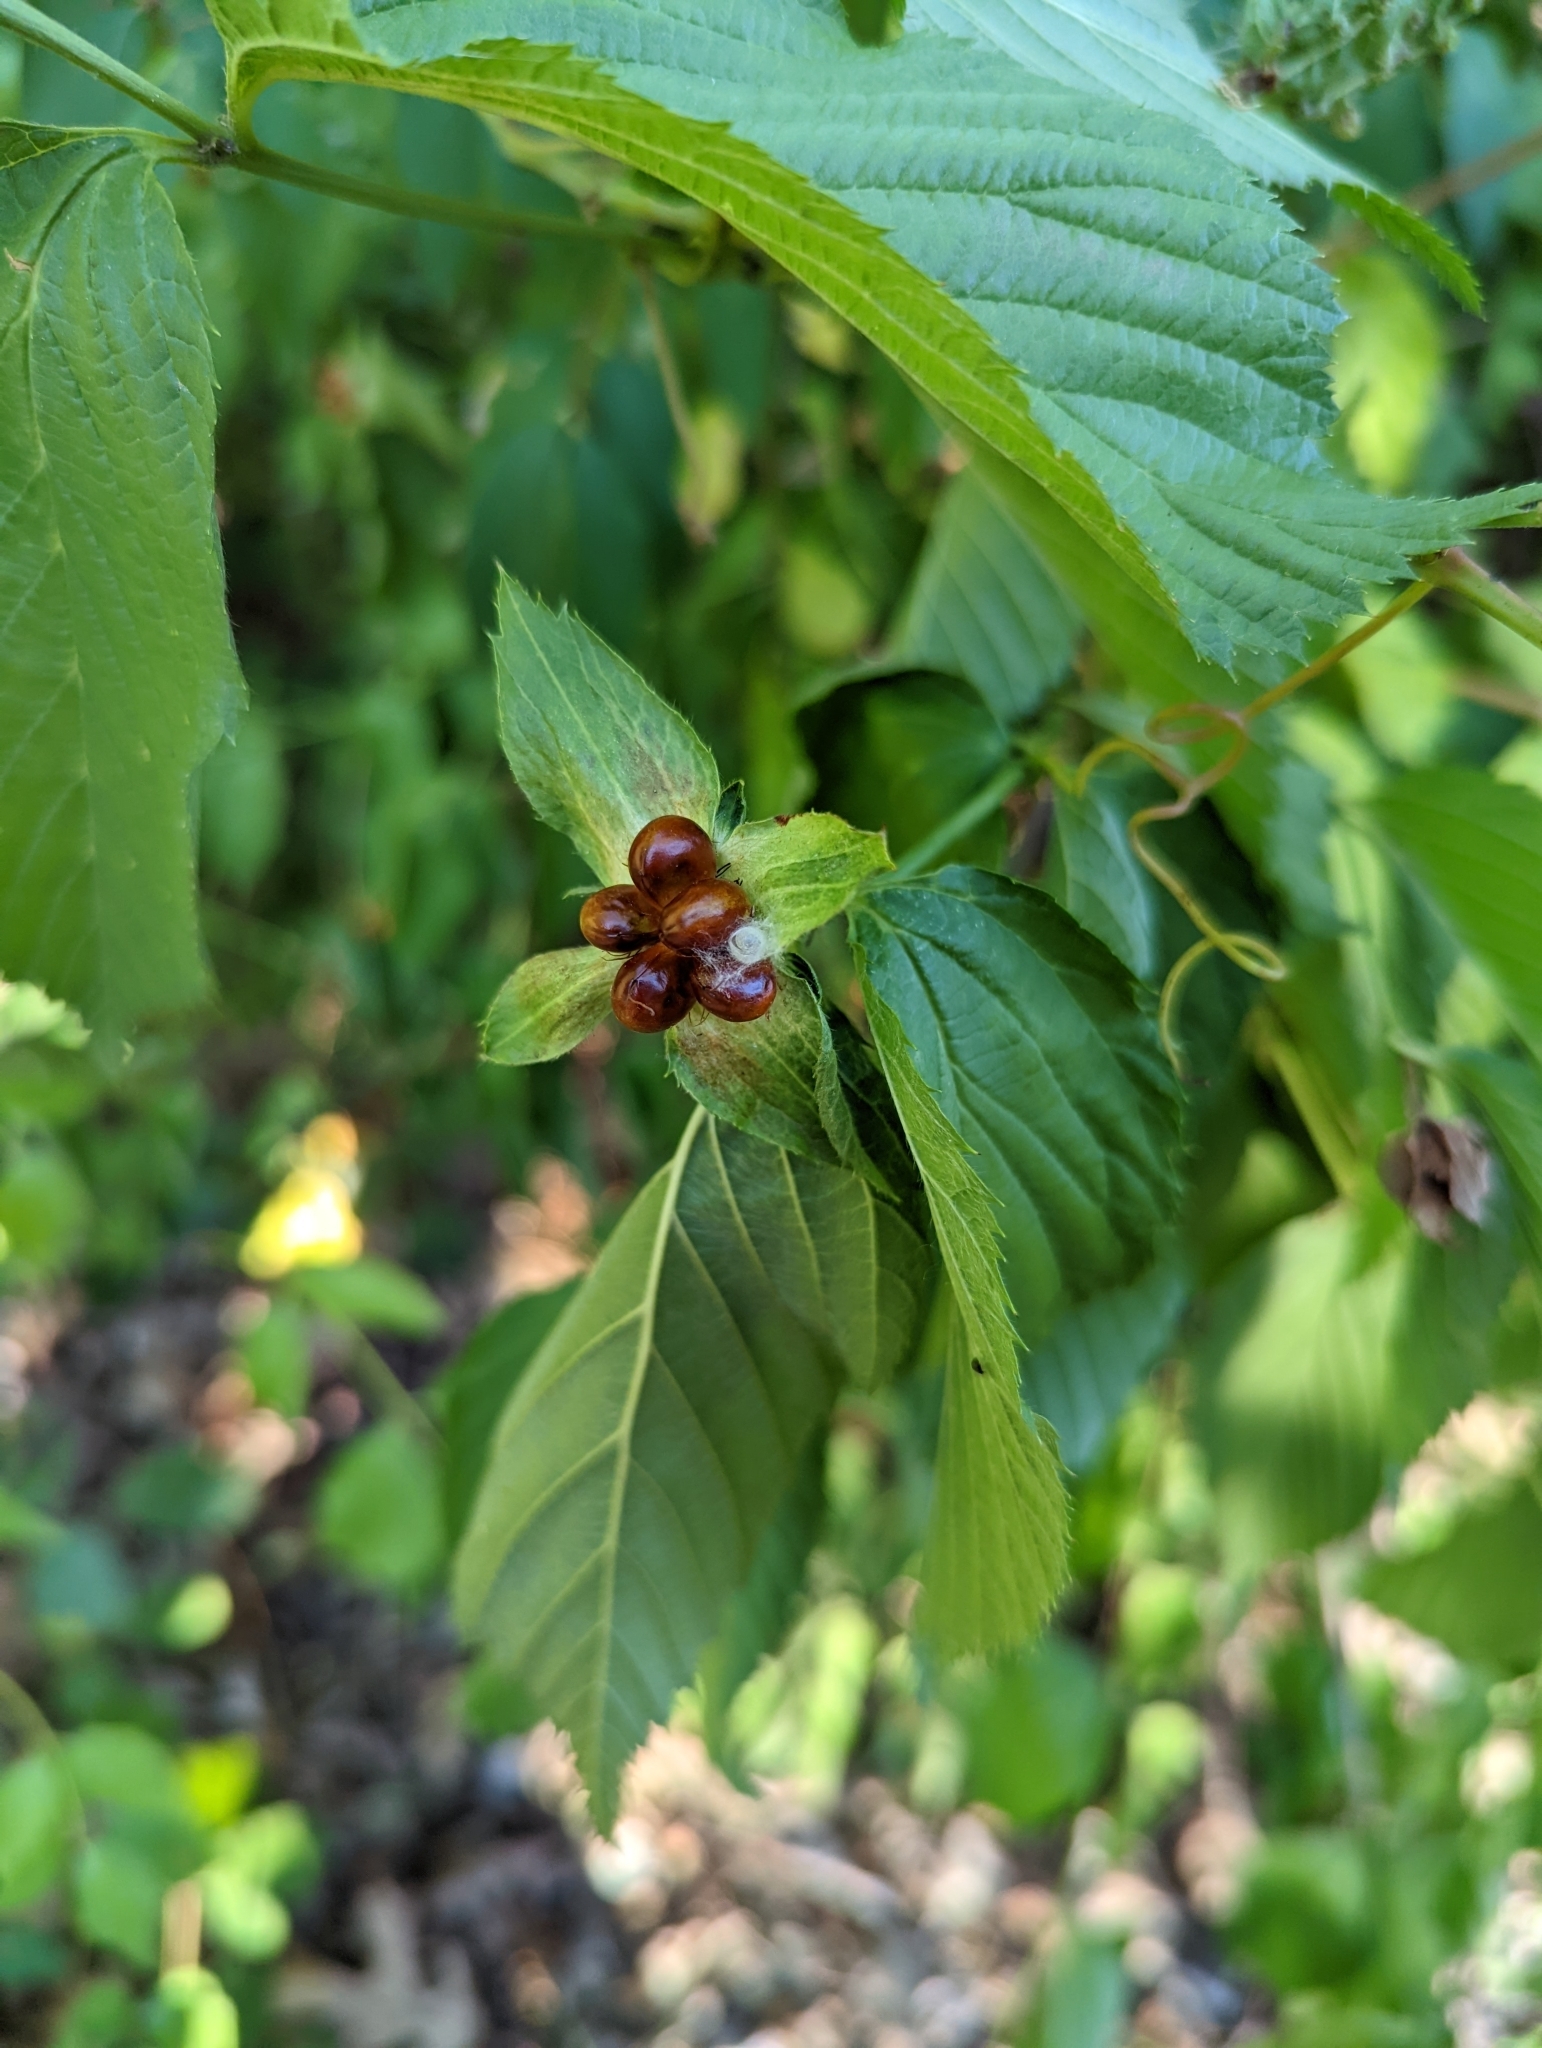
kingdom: Plantae
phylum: Tracheophyta
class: Magnoliopsida
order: Rosales
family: Rosaceae
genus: Rhodotypos
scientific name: Rhodotypos scandens
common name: Jetbead
